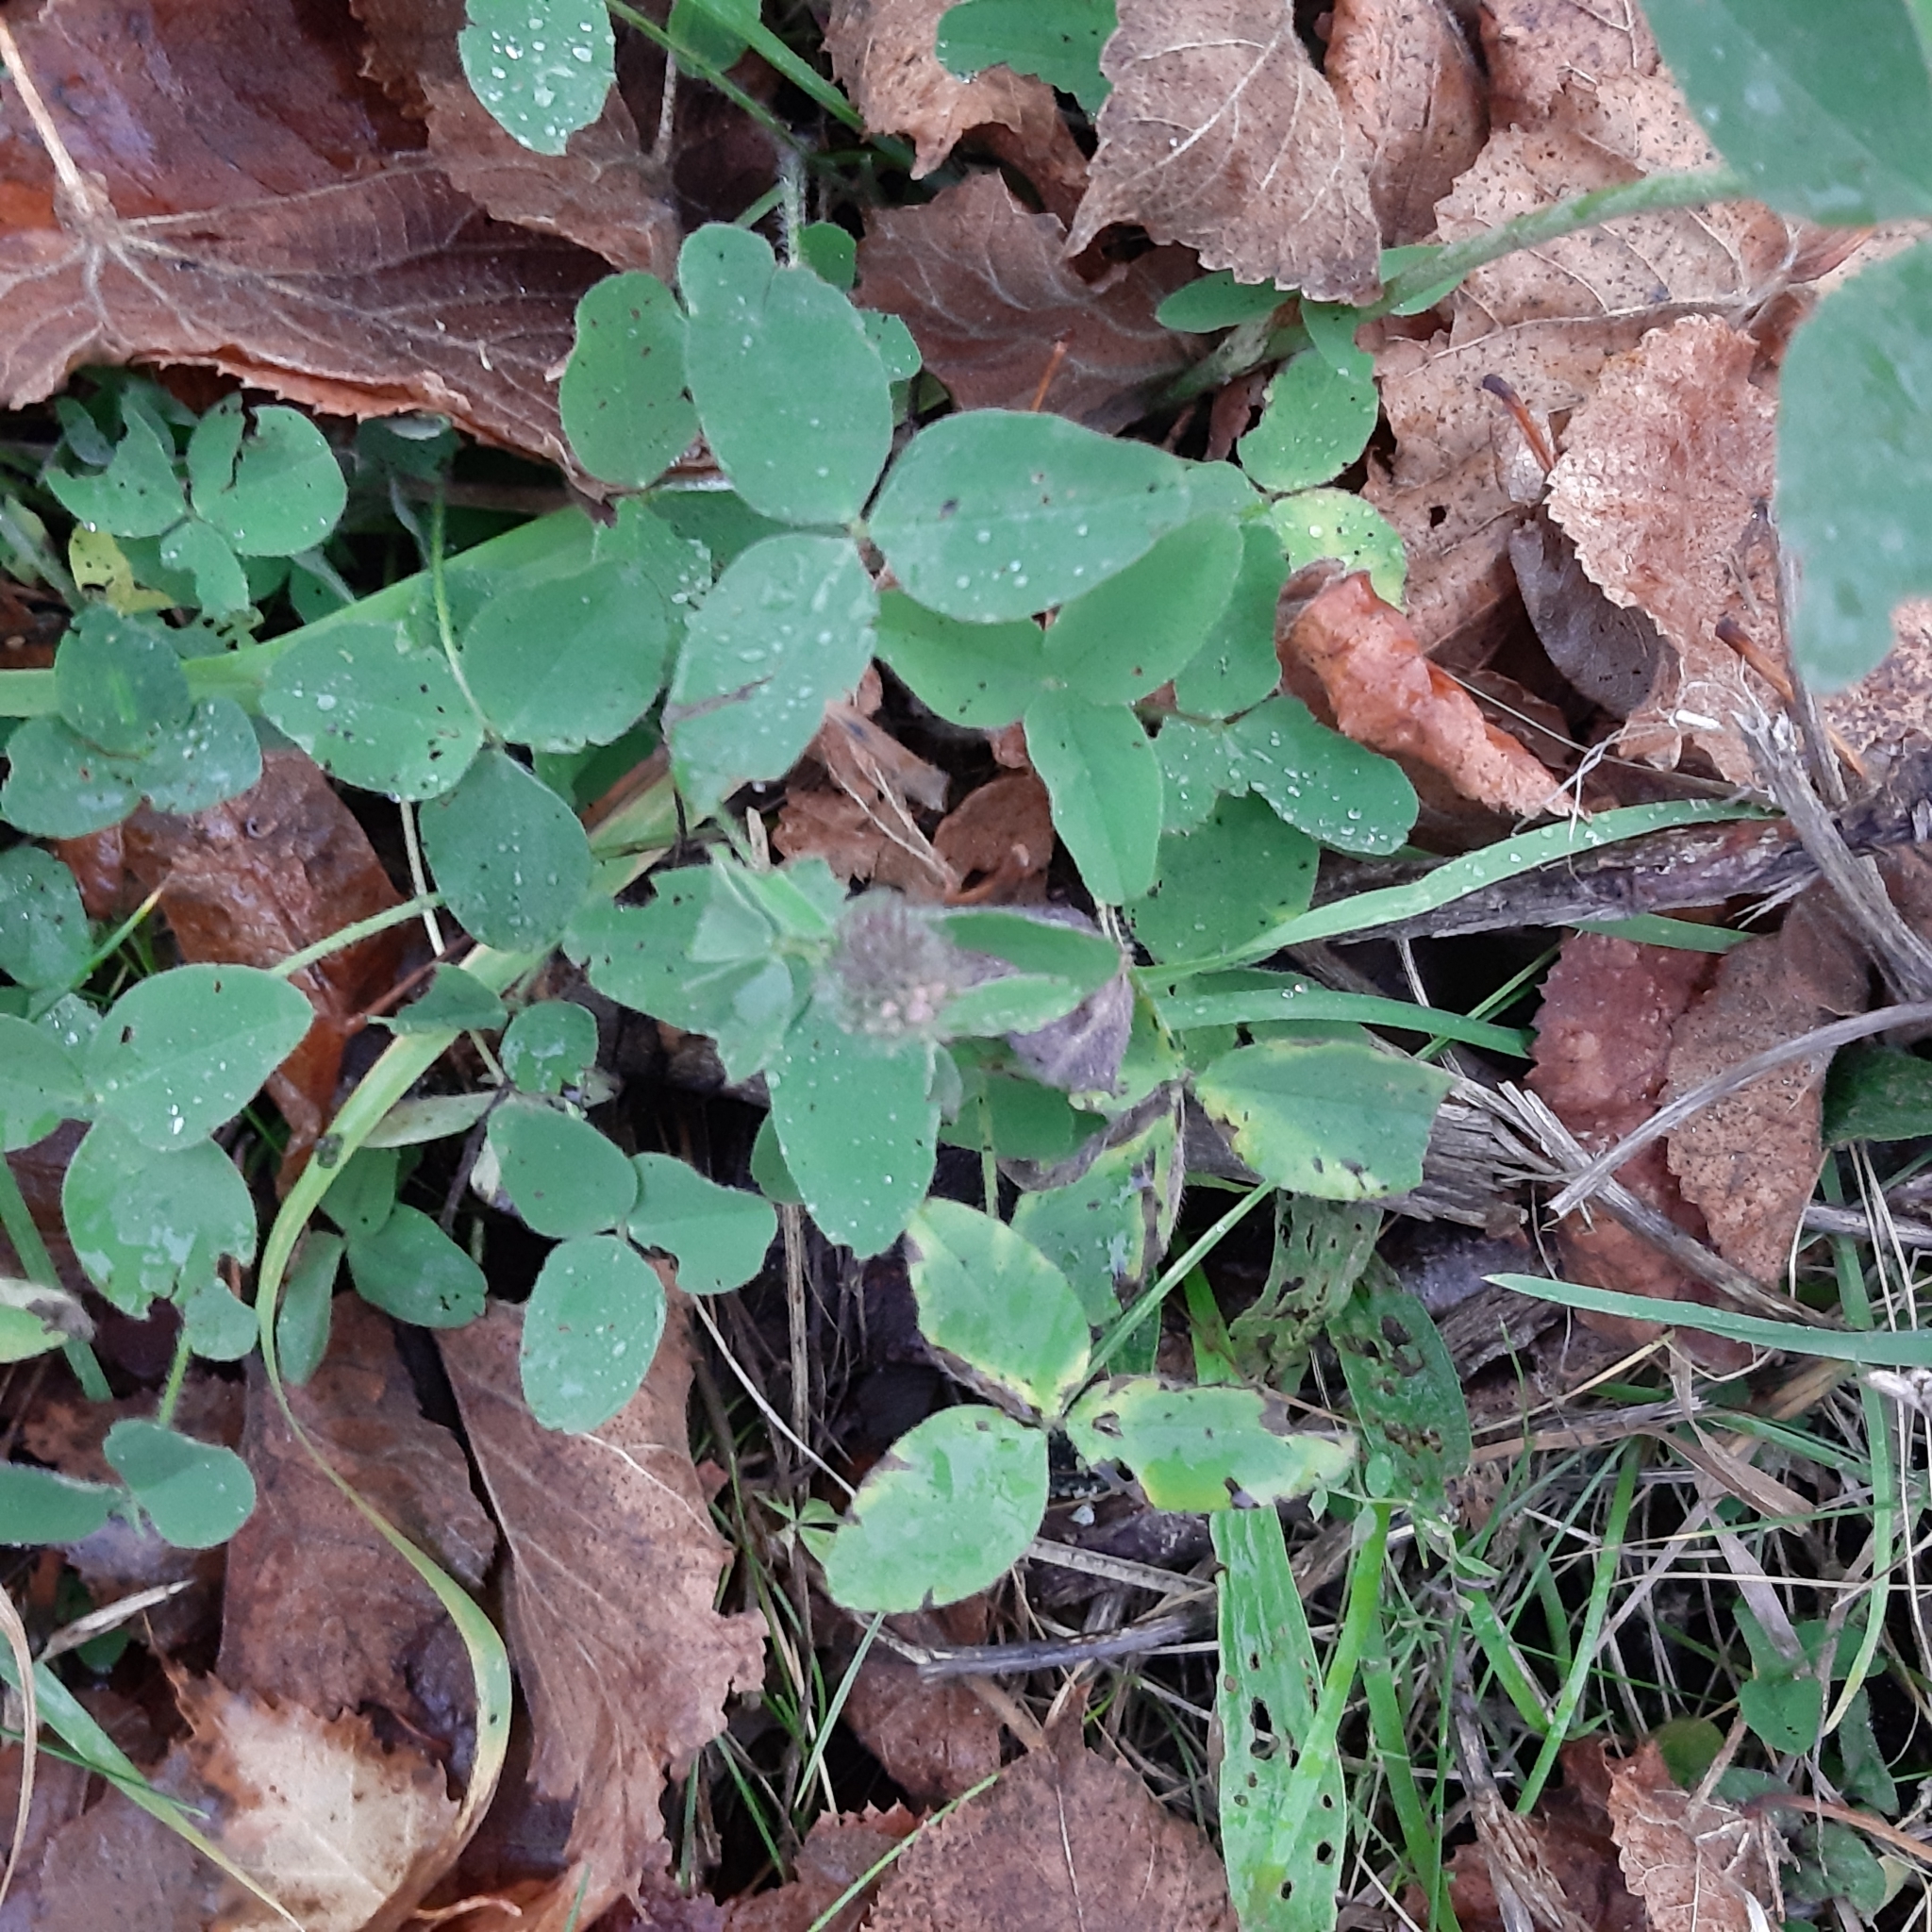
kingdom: Plantae
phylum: Tracheophyta
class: Magnoliopsida
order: Fabales
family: Fabaceae
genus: Trifolium
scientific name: Trifolium pratense
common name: Red clover
